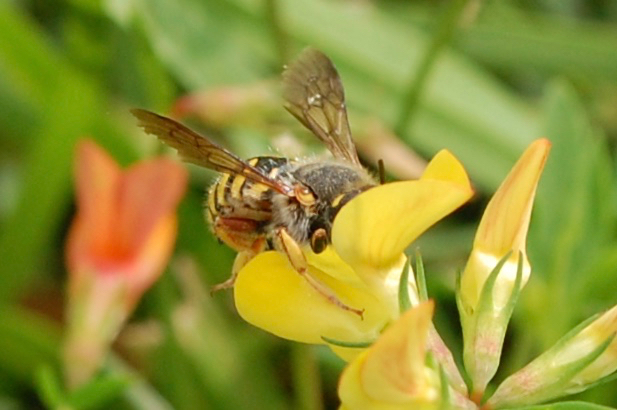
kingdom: Animalia
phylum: Arthropoda
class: Insecta
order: Hymenoptera
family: Megachilidae
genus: Anthidium
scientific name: Anthidium oblongatum
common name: Oblong wool carder bee
